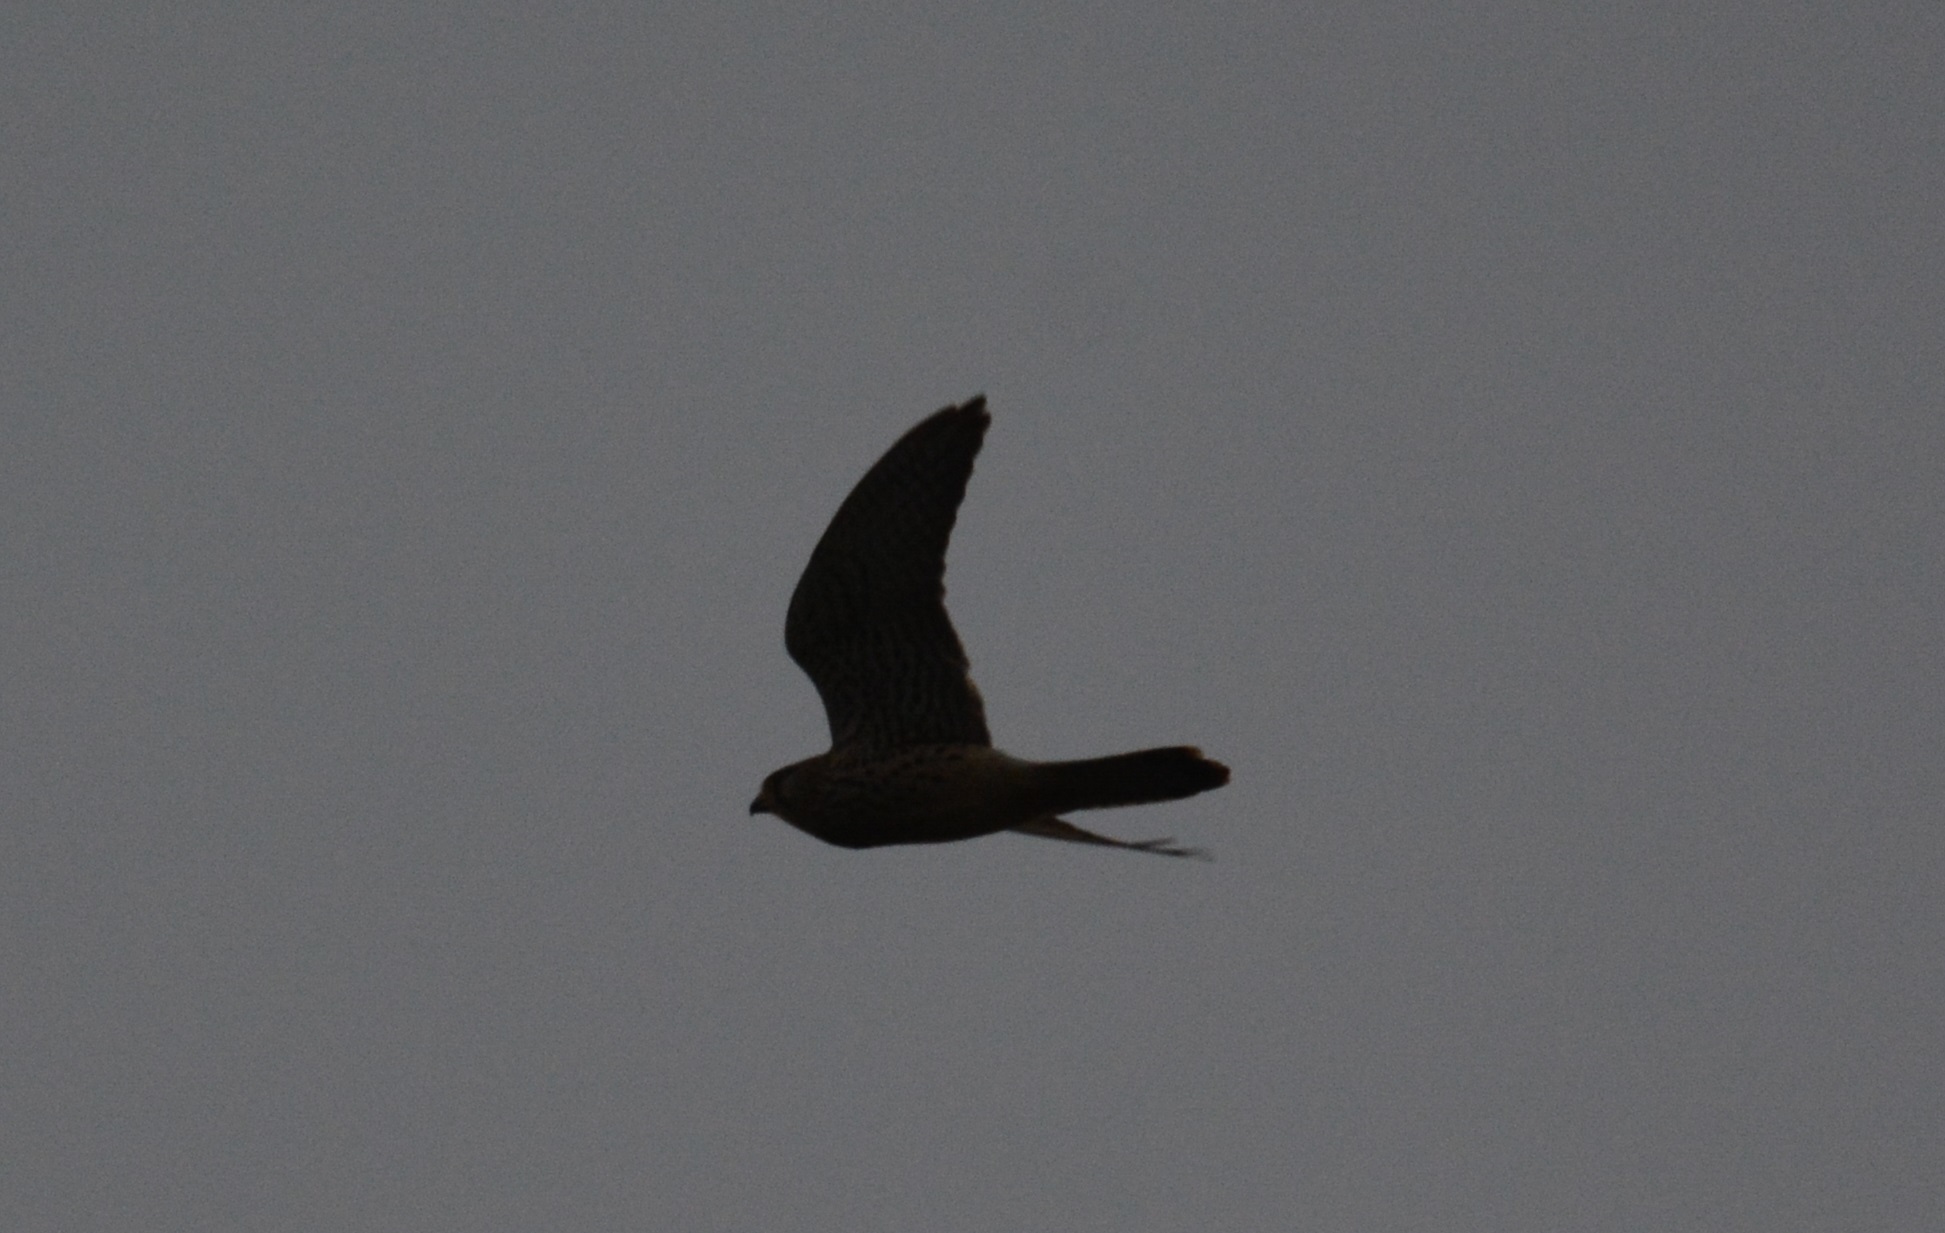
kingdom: Animalia
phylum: Chordata
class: Aves
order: Falconiformes
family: Falconidae
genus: Falco
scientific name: Falco tinnunculus
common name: Common kestrel
